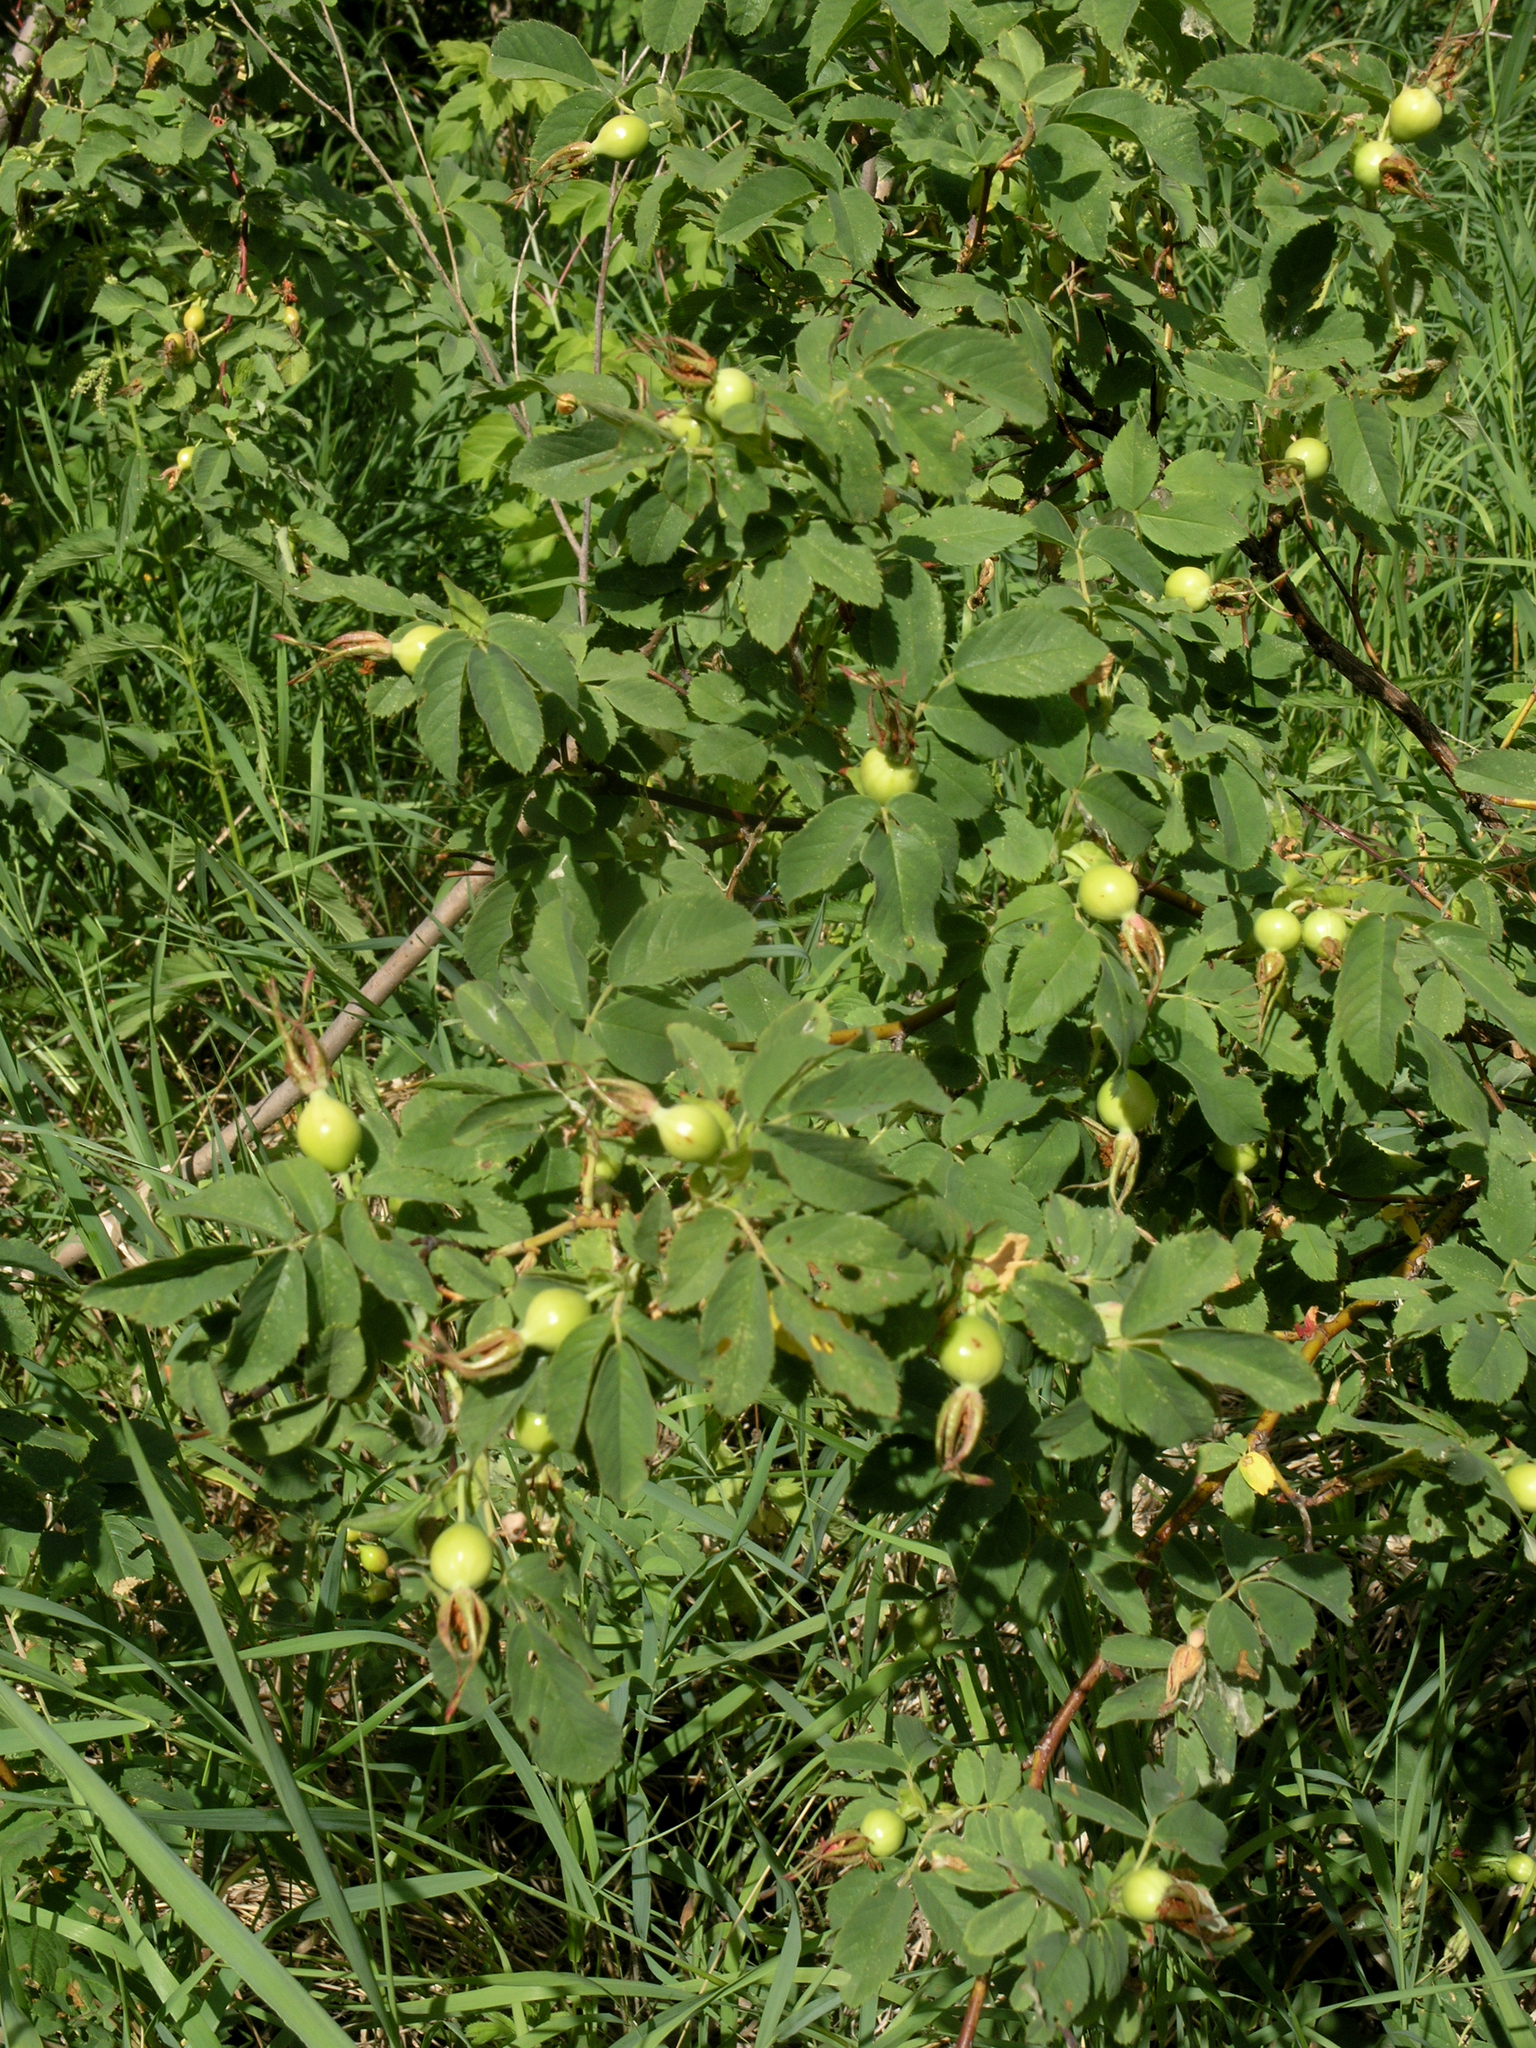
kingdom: Plantae
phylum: Tracheophyta
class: Magnoliopsida
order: Rosales
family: Rosaceae
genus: Rosa
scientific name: Rosa
